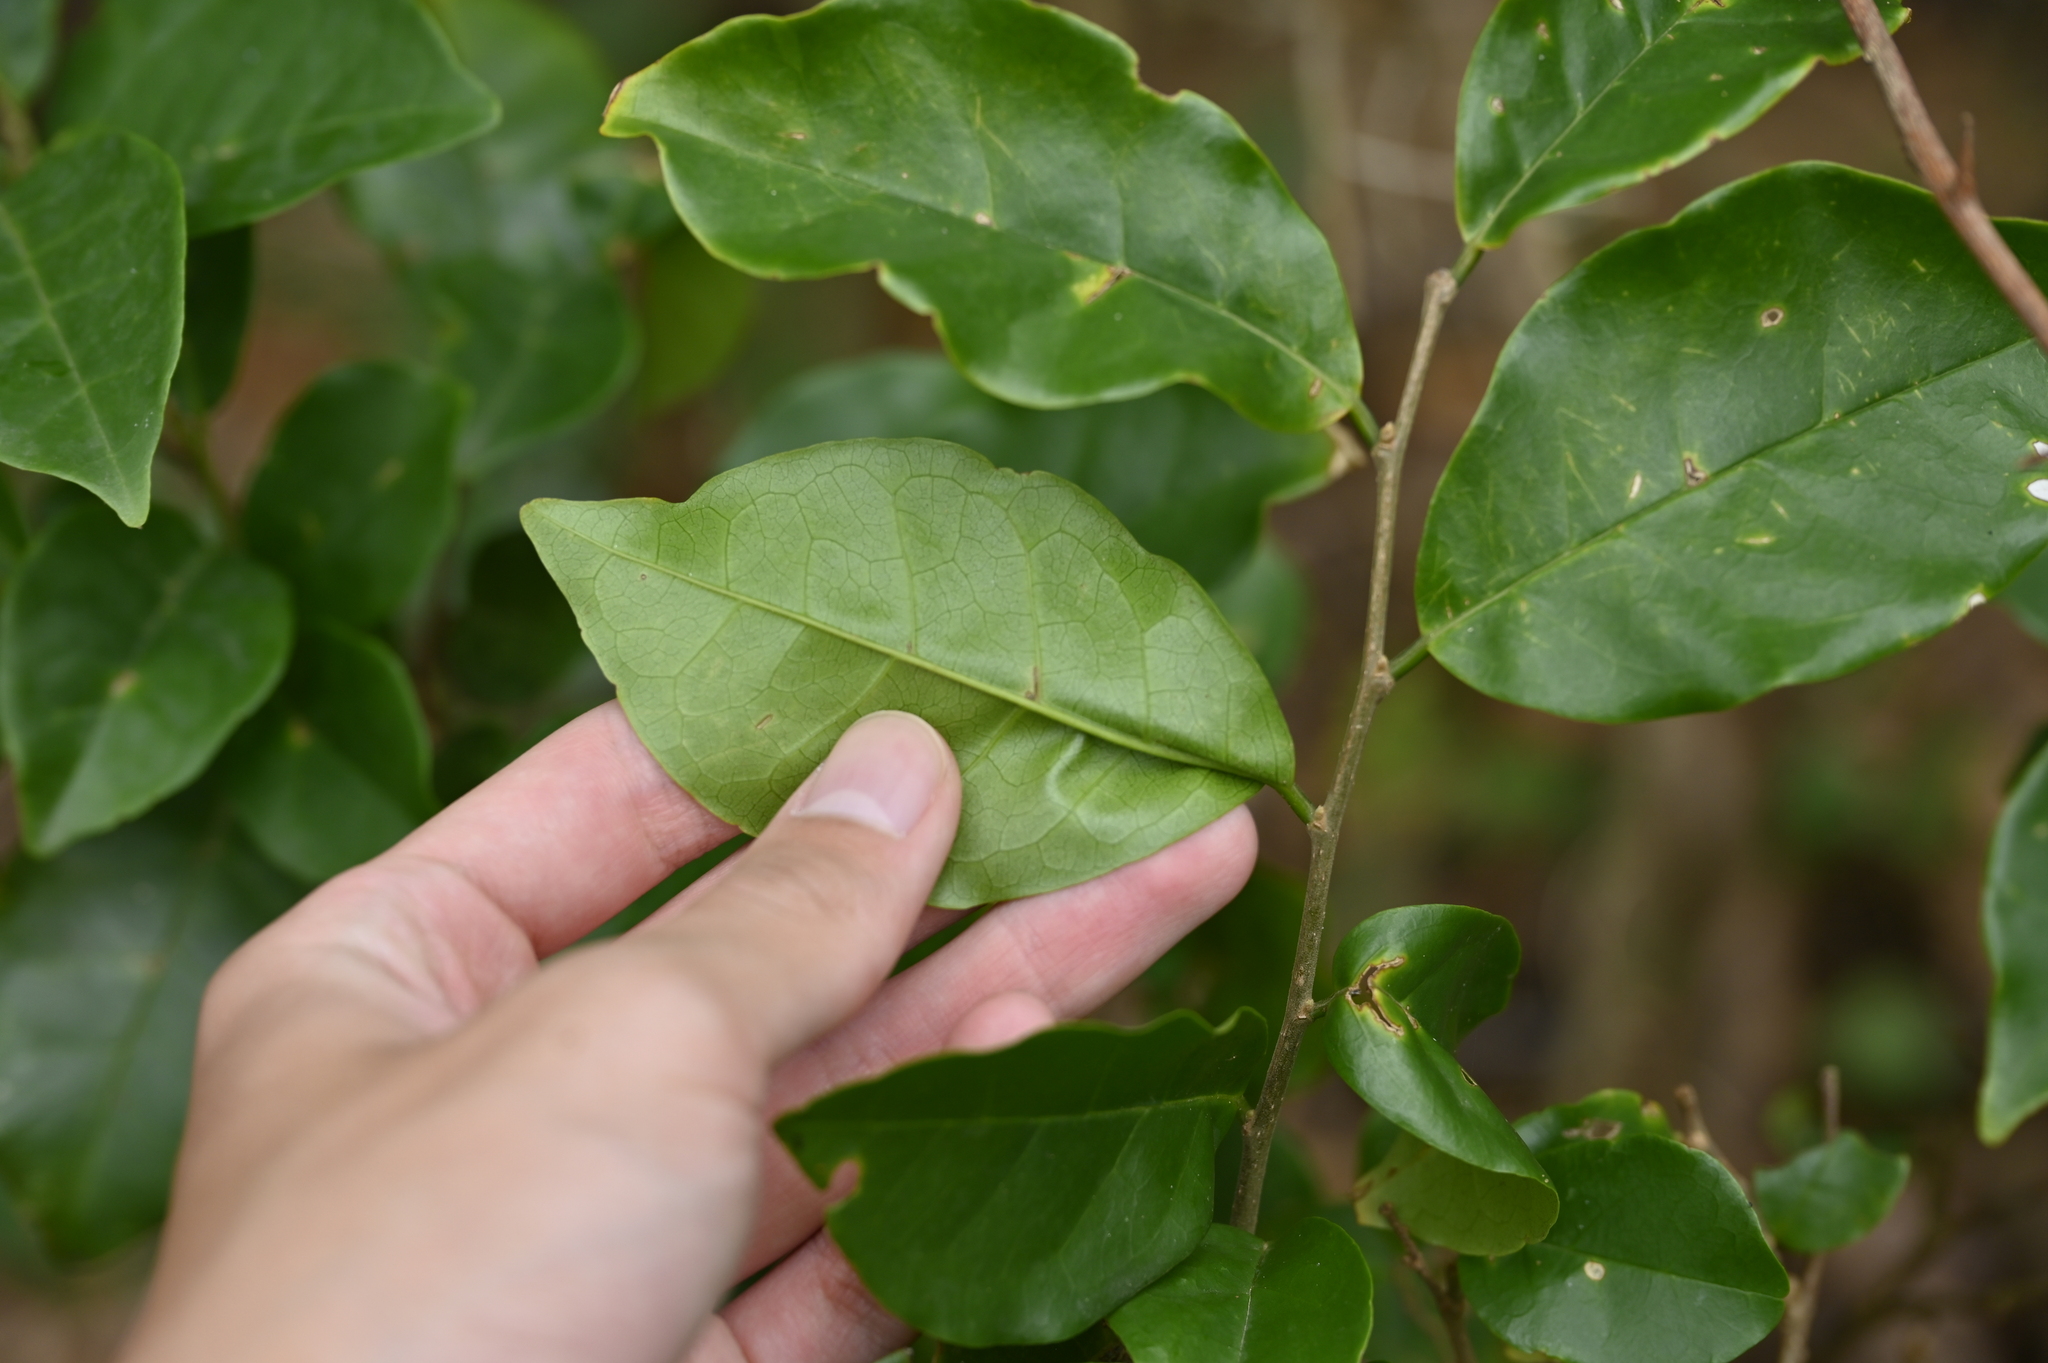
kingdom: Plantae
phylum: Tracheophyta
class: Magnoliopsida
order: Malpighiales
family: Phyllanthaceae
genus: Antidesma
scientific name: Antidesma montanum
